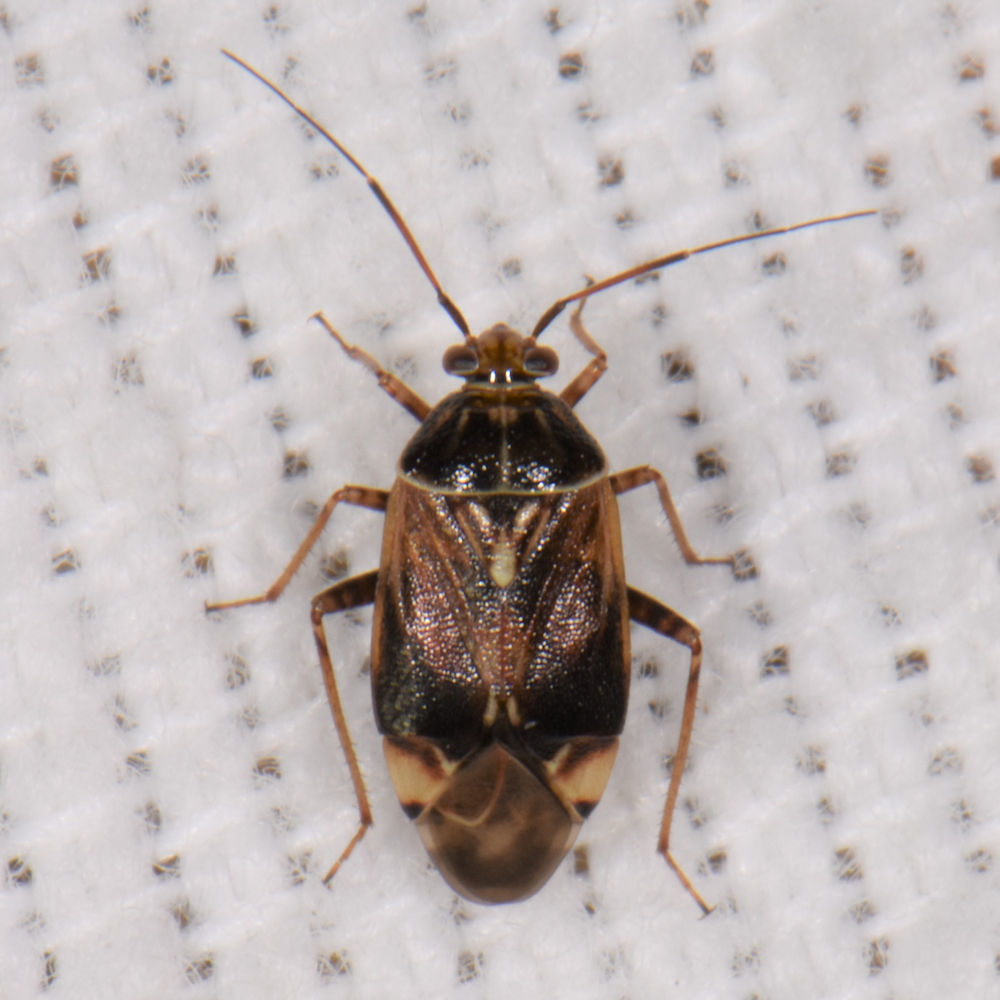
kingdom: Animalia
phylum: Arthropoda
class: Insecta
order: Hemiptera
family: Miridae
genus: Lygus
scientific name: Lygus lineolaris
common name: North american tarnished plant bug
